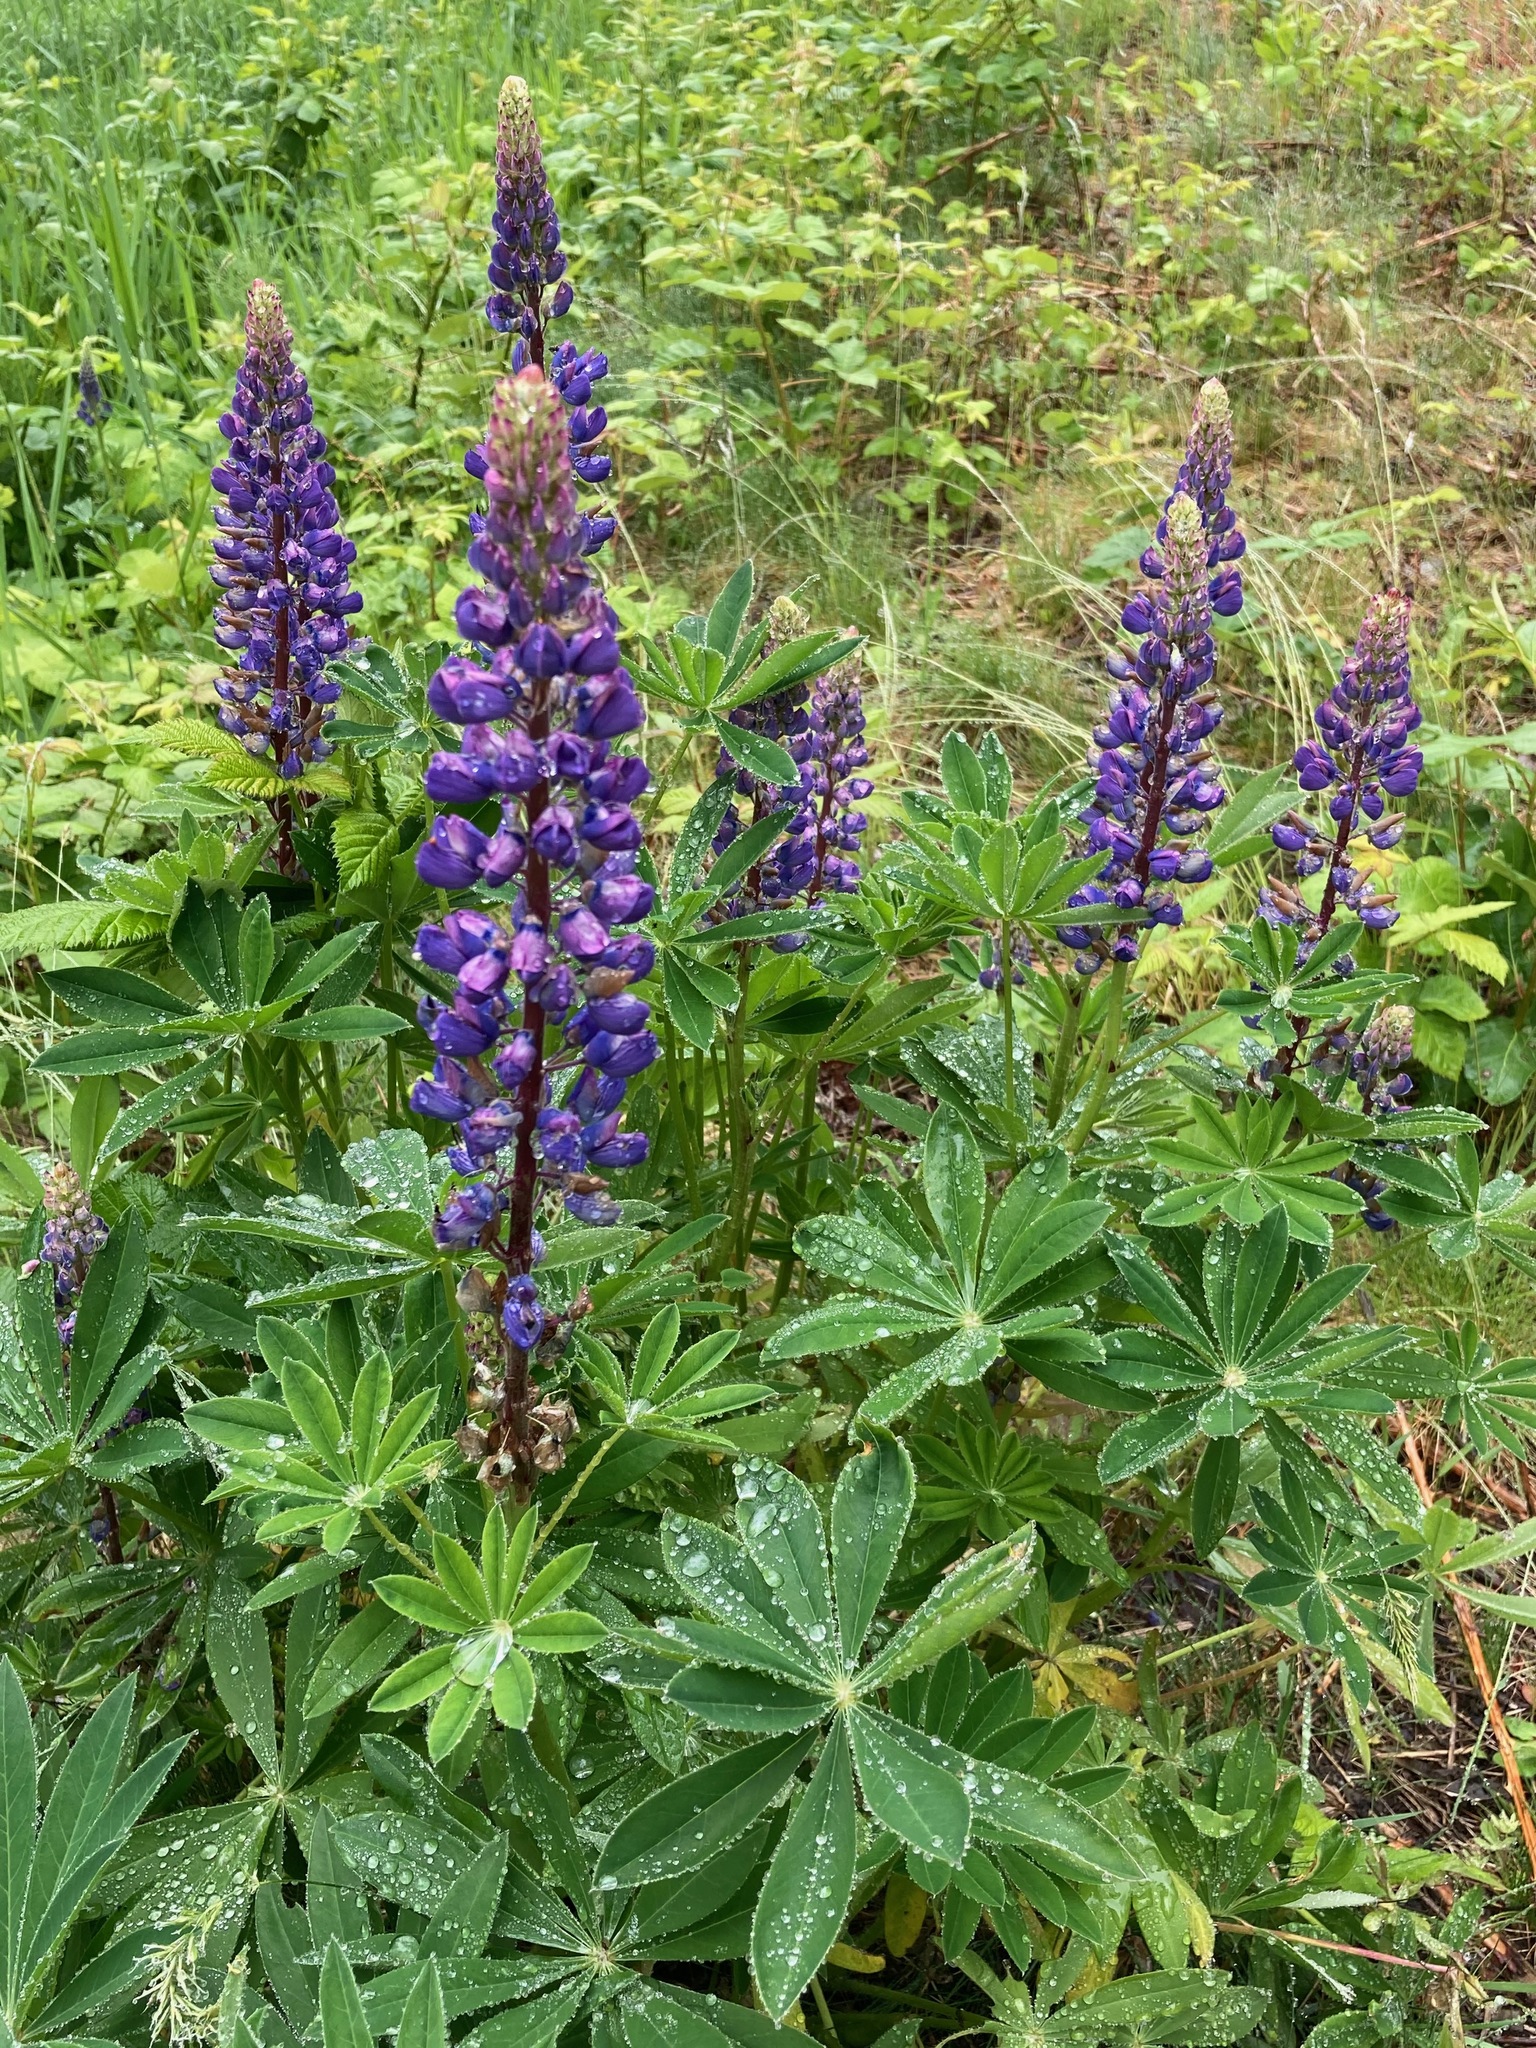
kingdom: Plantae
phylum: Tracheophyta
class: Magnoliopsida
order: Fabales
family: Fabaceae
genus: Lupinus
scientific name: Lupinus polyphyllus
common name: Garden lupin
